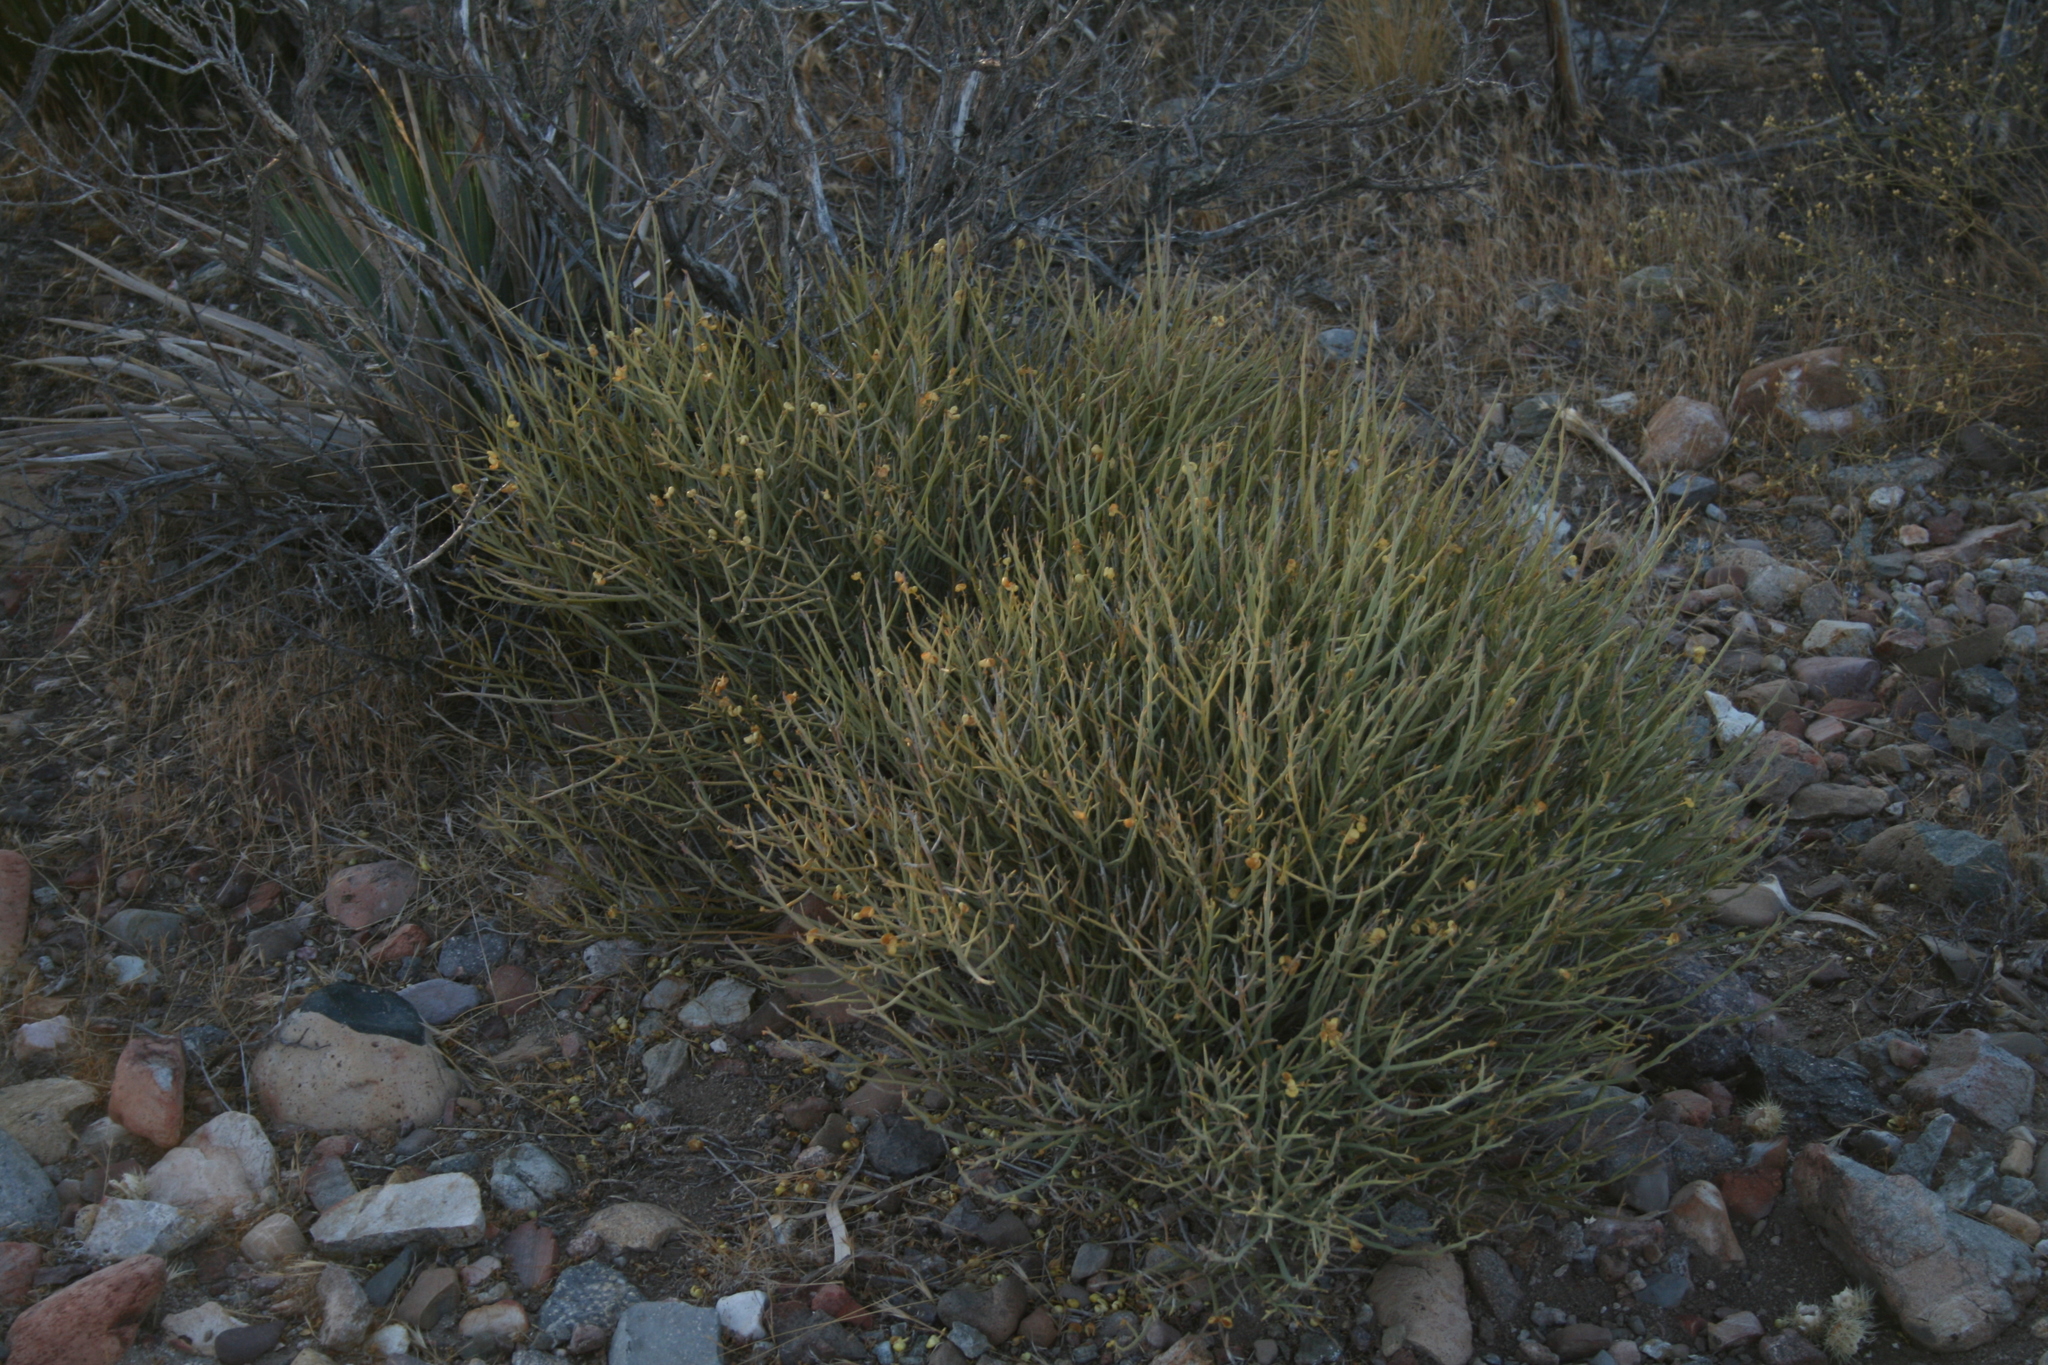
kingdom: Plantae
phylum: Tracheophyta
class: Magnoliopsida
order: Sapindales
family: Rutaceae
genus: Thamnosma
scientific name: Thamnosma montana
